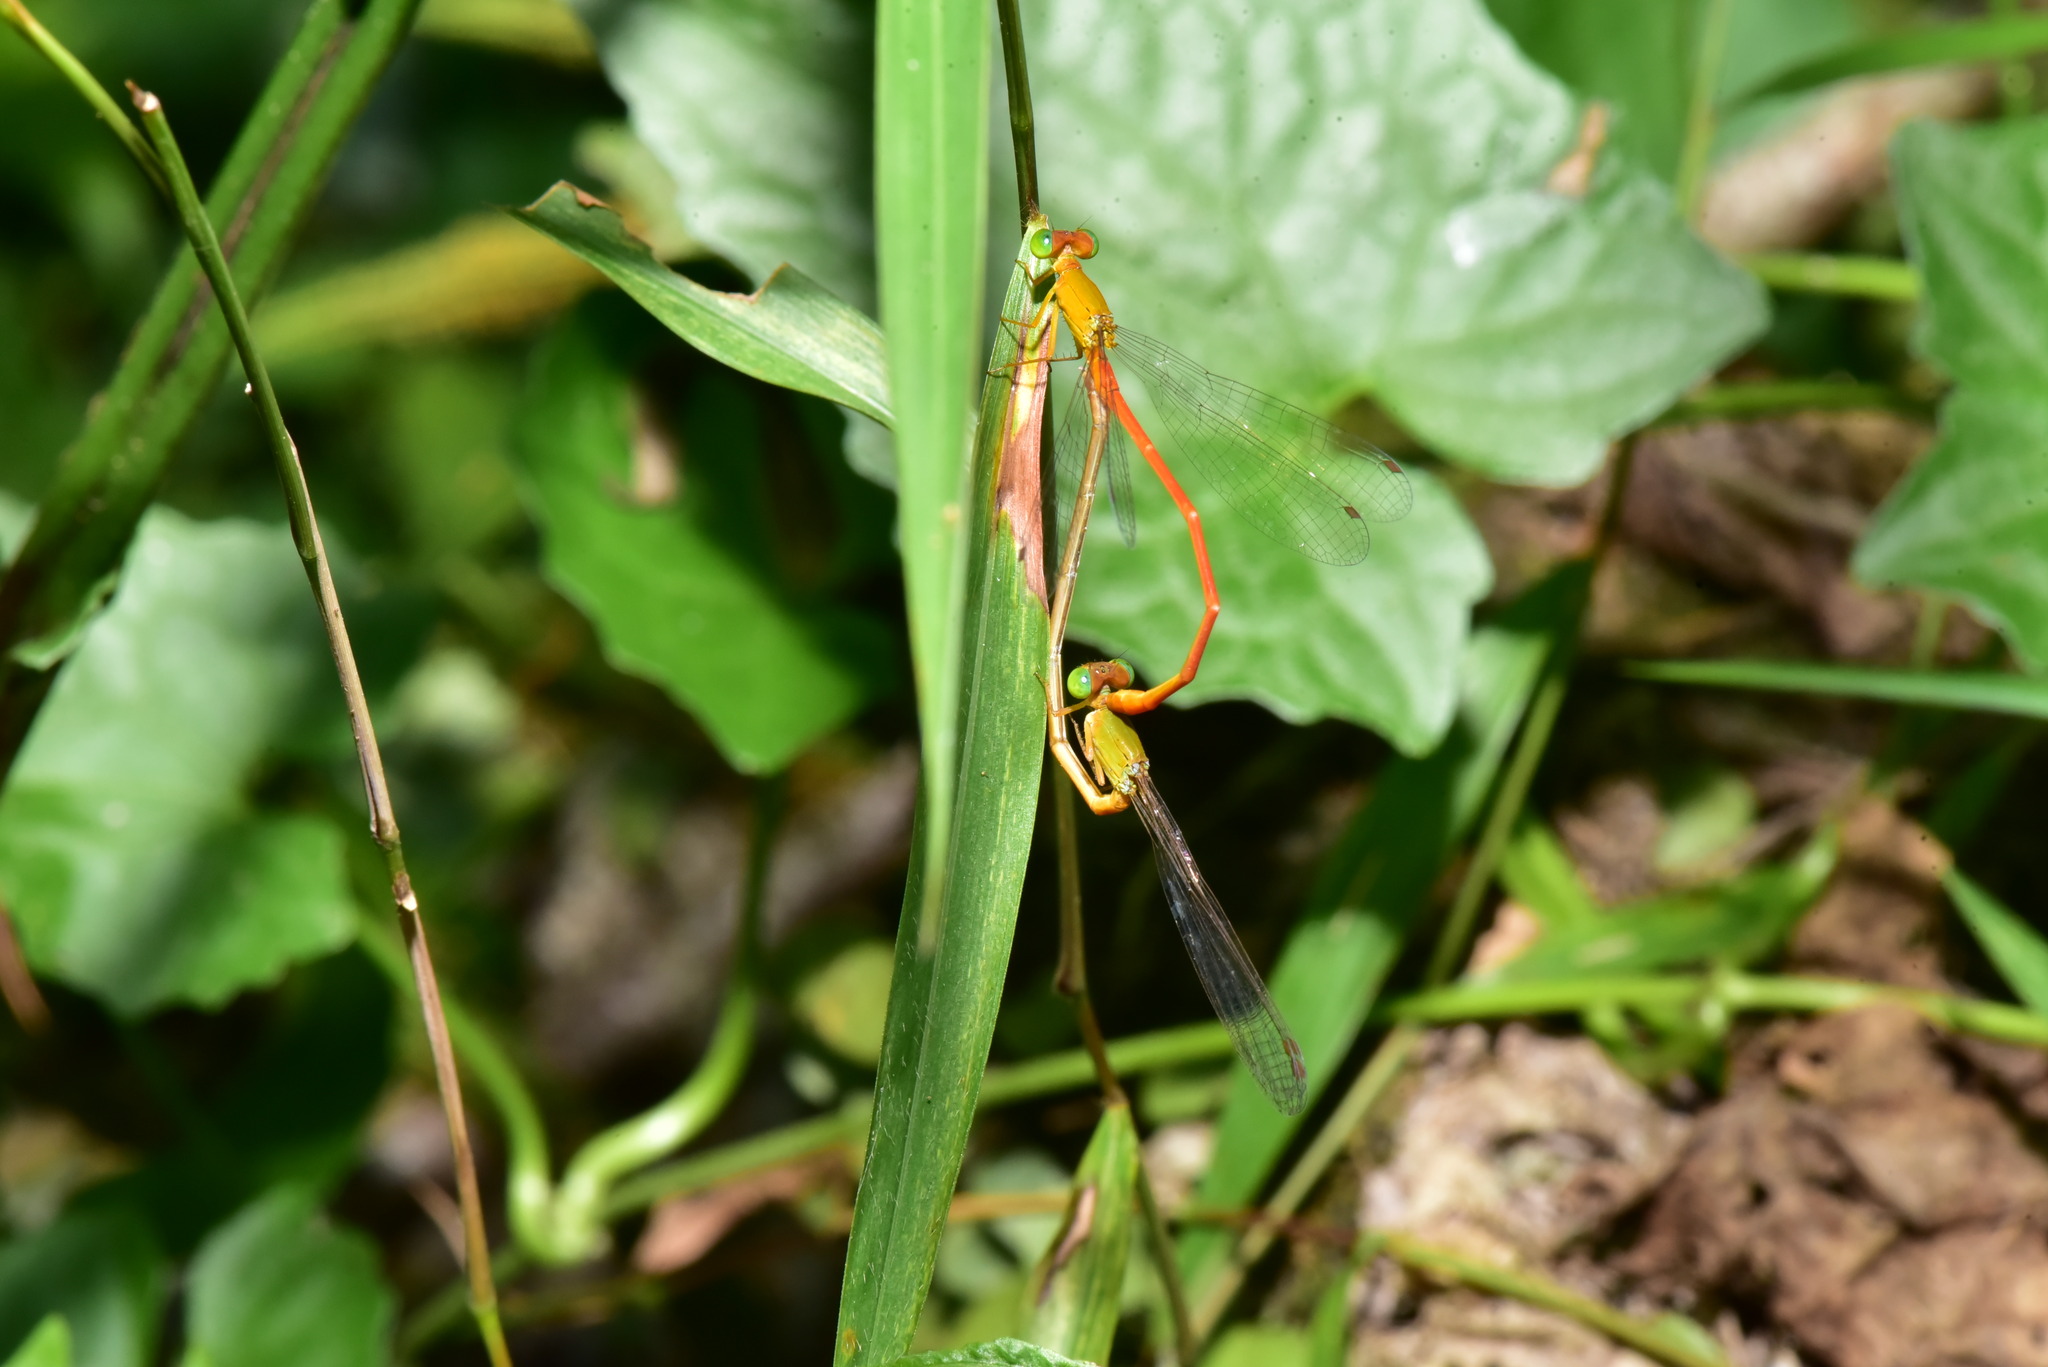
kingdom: Animalia
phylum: Arthropoda
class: Insecta
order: Odonata
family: Coenagrionidae
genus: Ceriagrion
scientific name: Ceriagrion auranticum
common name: Orange-tailed sprite
